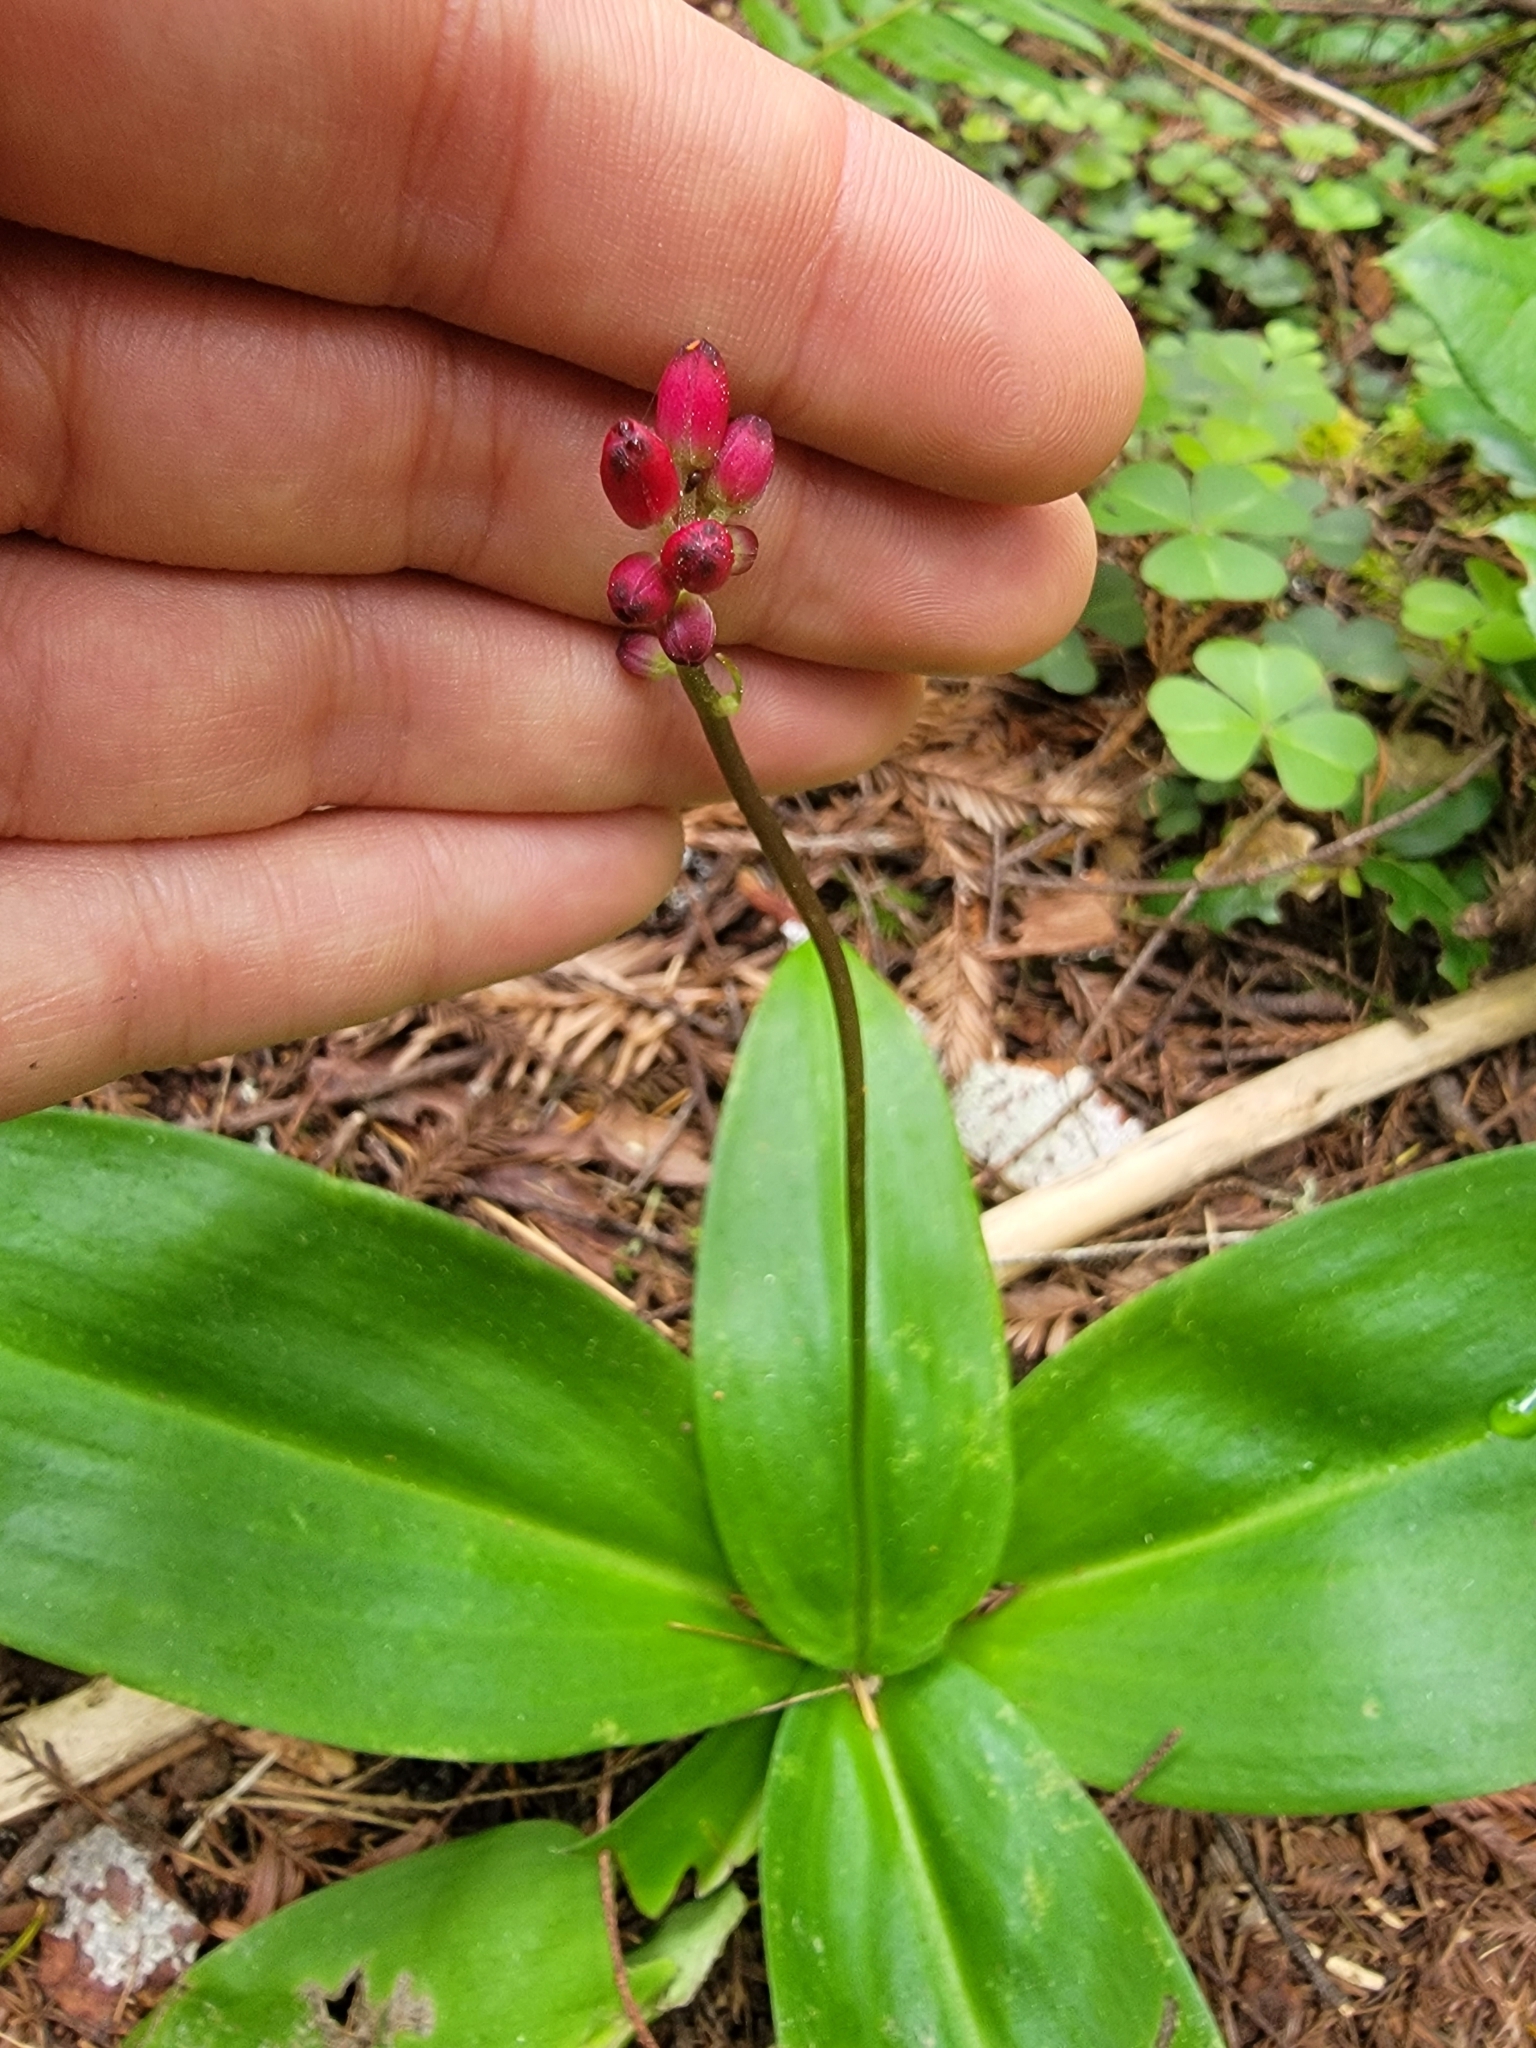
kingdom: Plantae
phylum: Tracheophyta
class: Liliopsida
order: Liliales
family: Liliaceae
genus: Clintonia
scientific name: Clintonia andrewsiana
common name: Red clintonia
